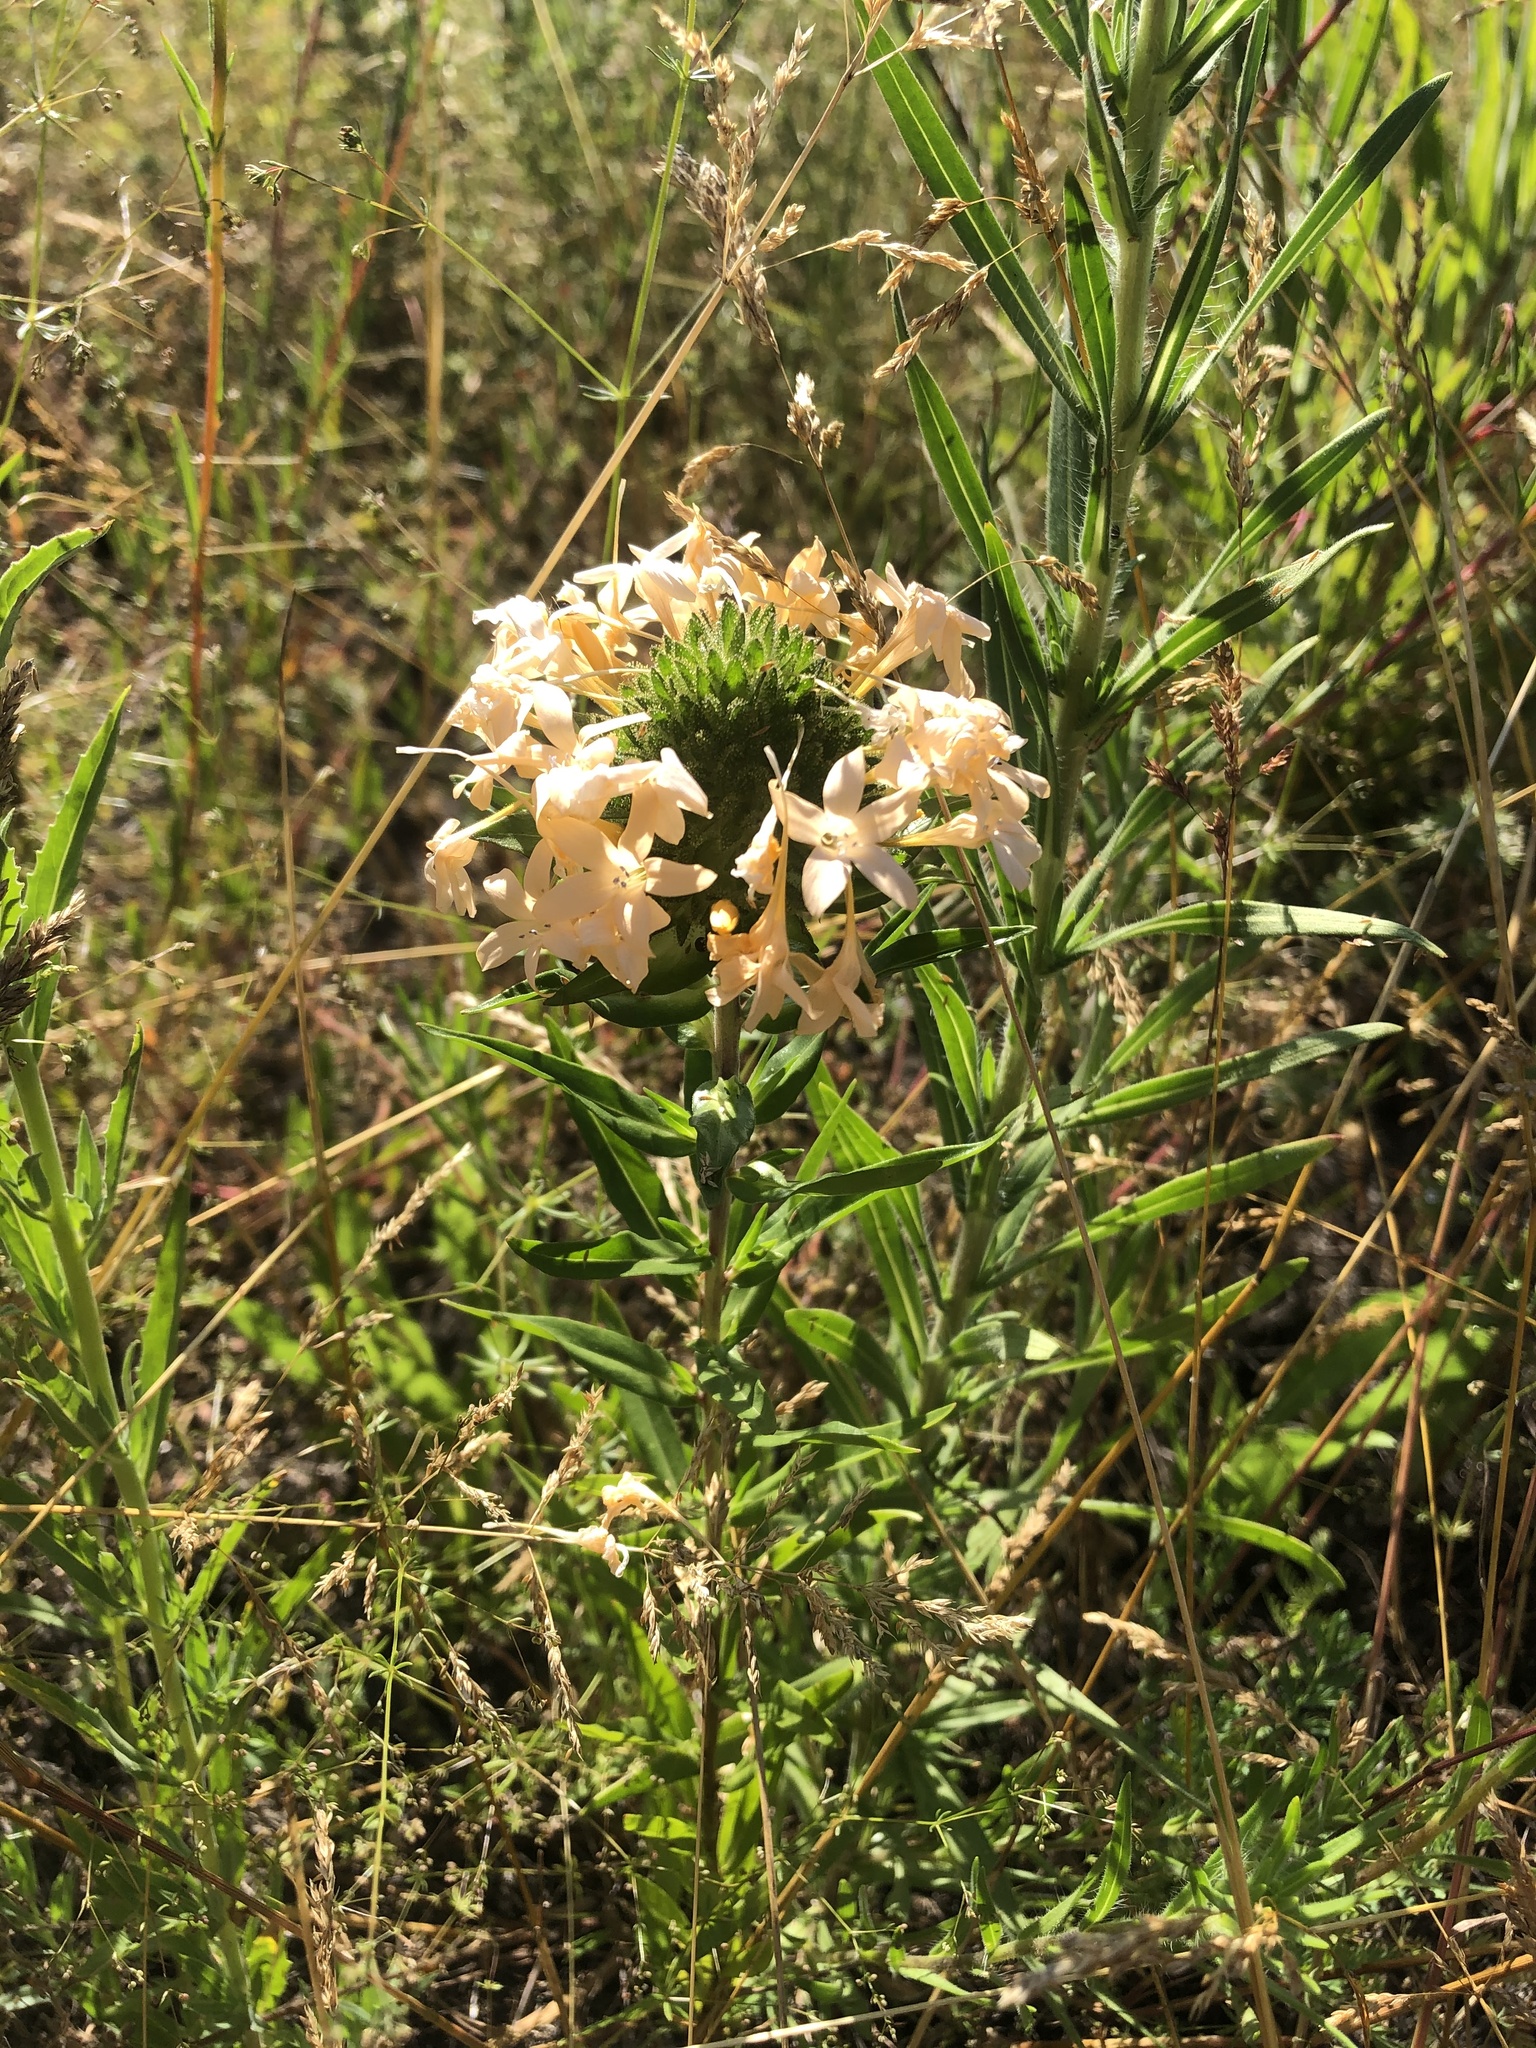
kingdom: Plantae
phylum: Tracheophyta
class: Magnoliopsida
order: Ericales
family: Polemoniaceae
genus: Collomia
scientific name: Collomia grandiflora
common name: California strawflower
